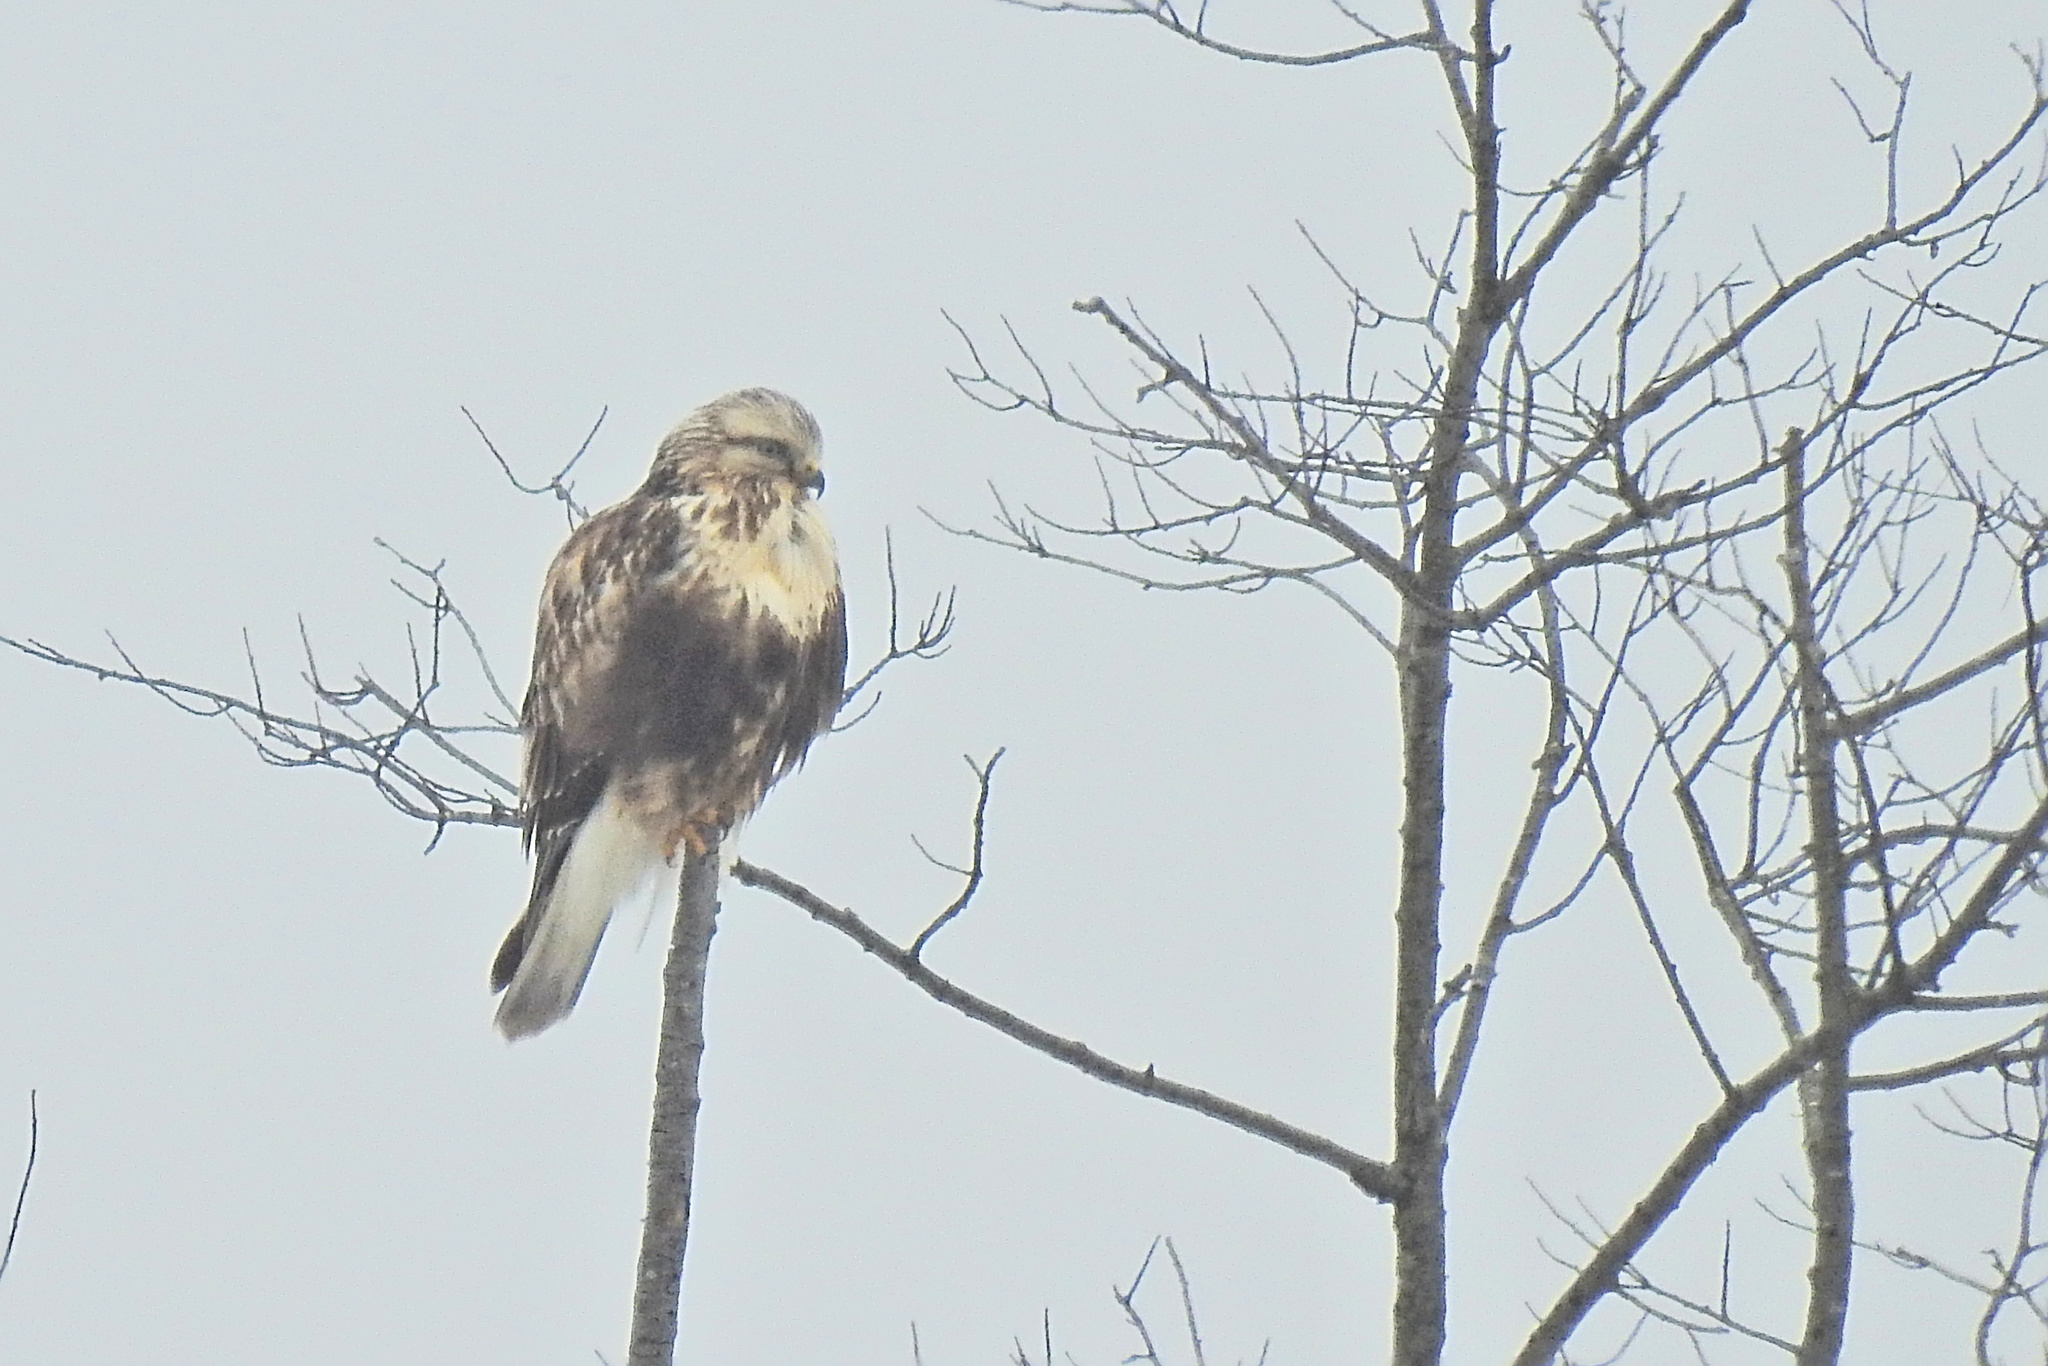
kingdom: Animalia
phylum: Chordata
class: Aves
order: Accipitriformes
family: Accipitridae
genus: Buteo
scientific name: Buteo lagopus
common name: Rough-legged buzzard
